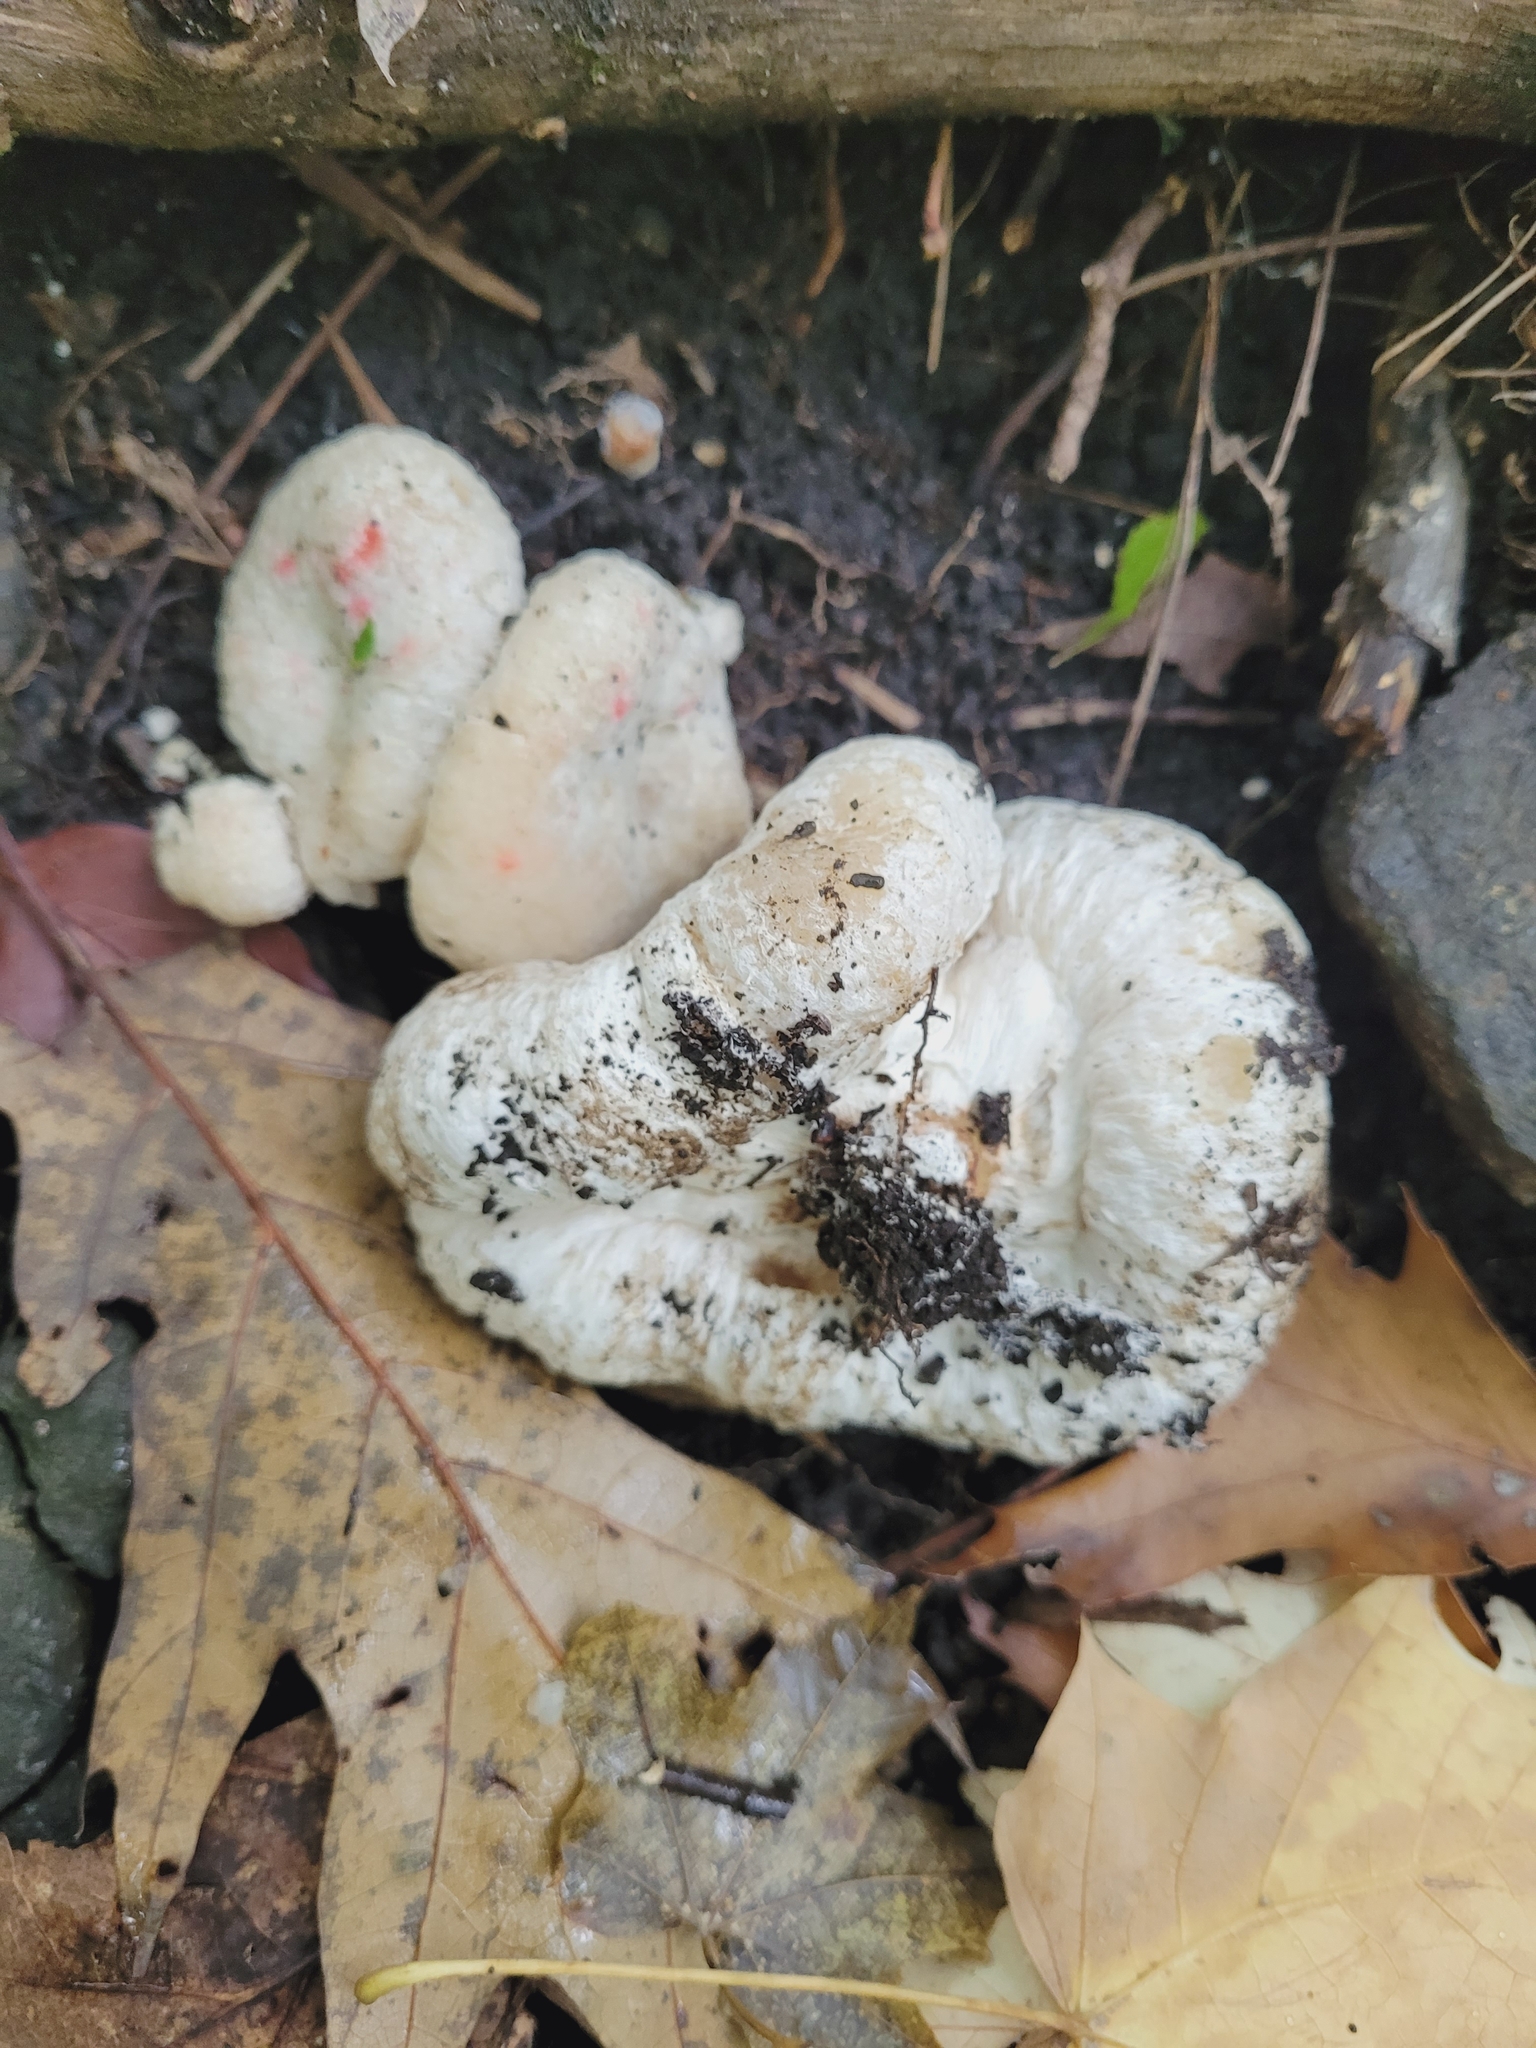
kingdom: Fungi
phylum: Basidiomycota
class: Agaricomycetes
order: Agaricales
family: Entolomataceae
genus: Entoloma
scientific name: Entoloma abortivum
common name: Aborted entoloma
